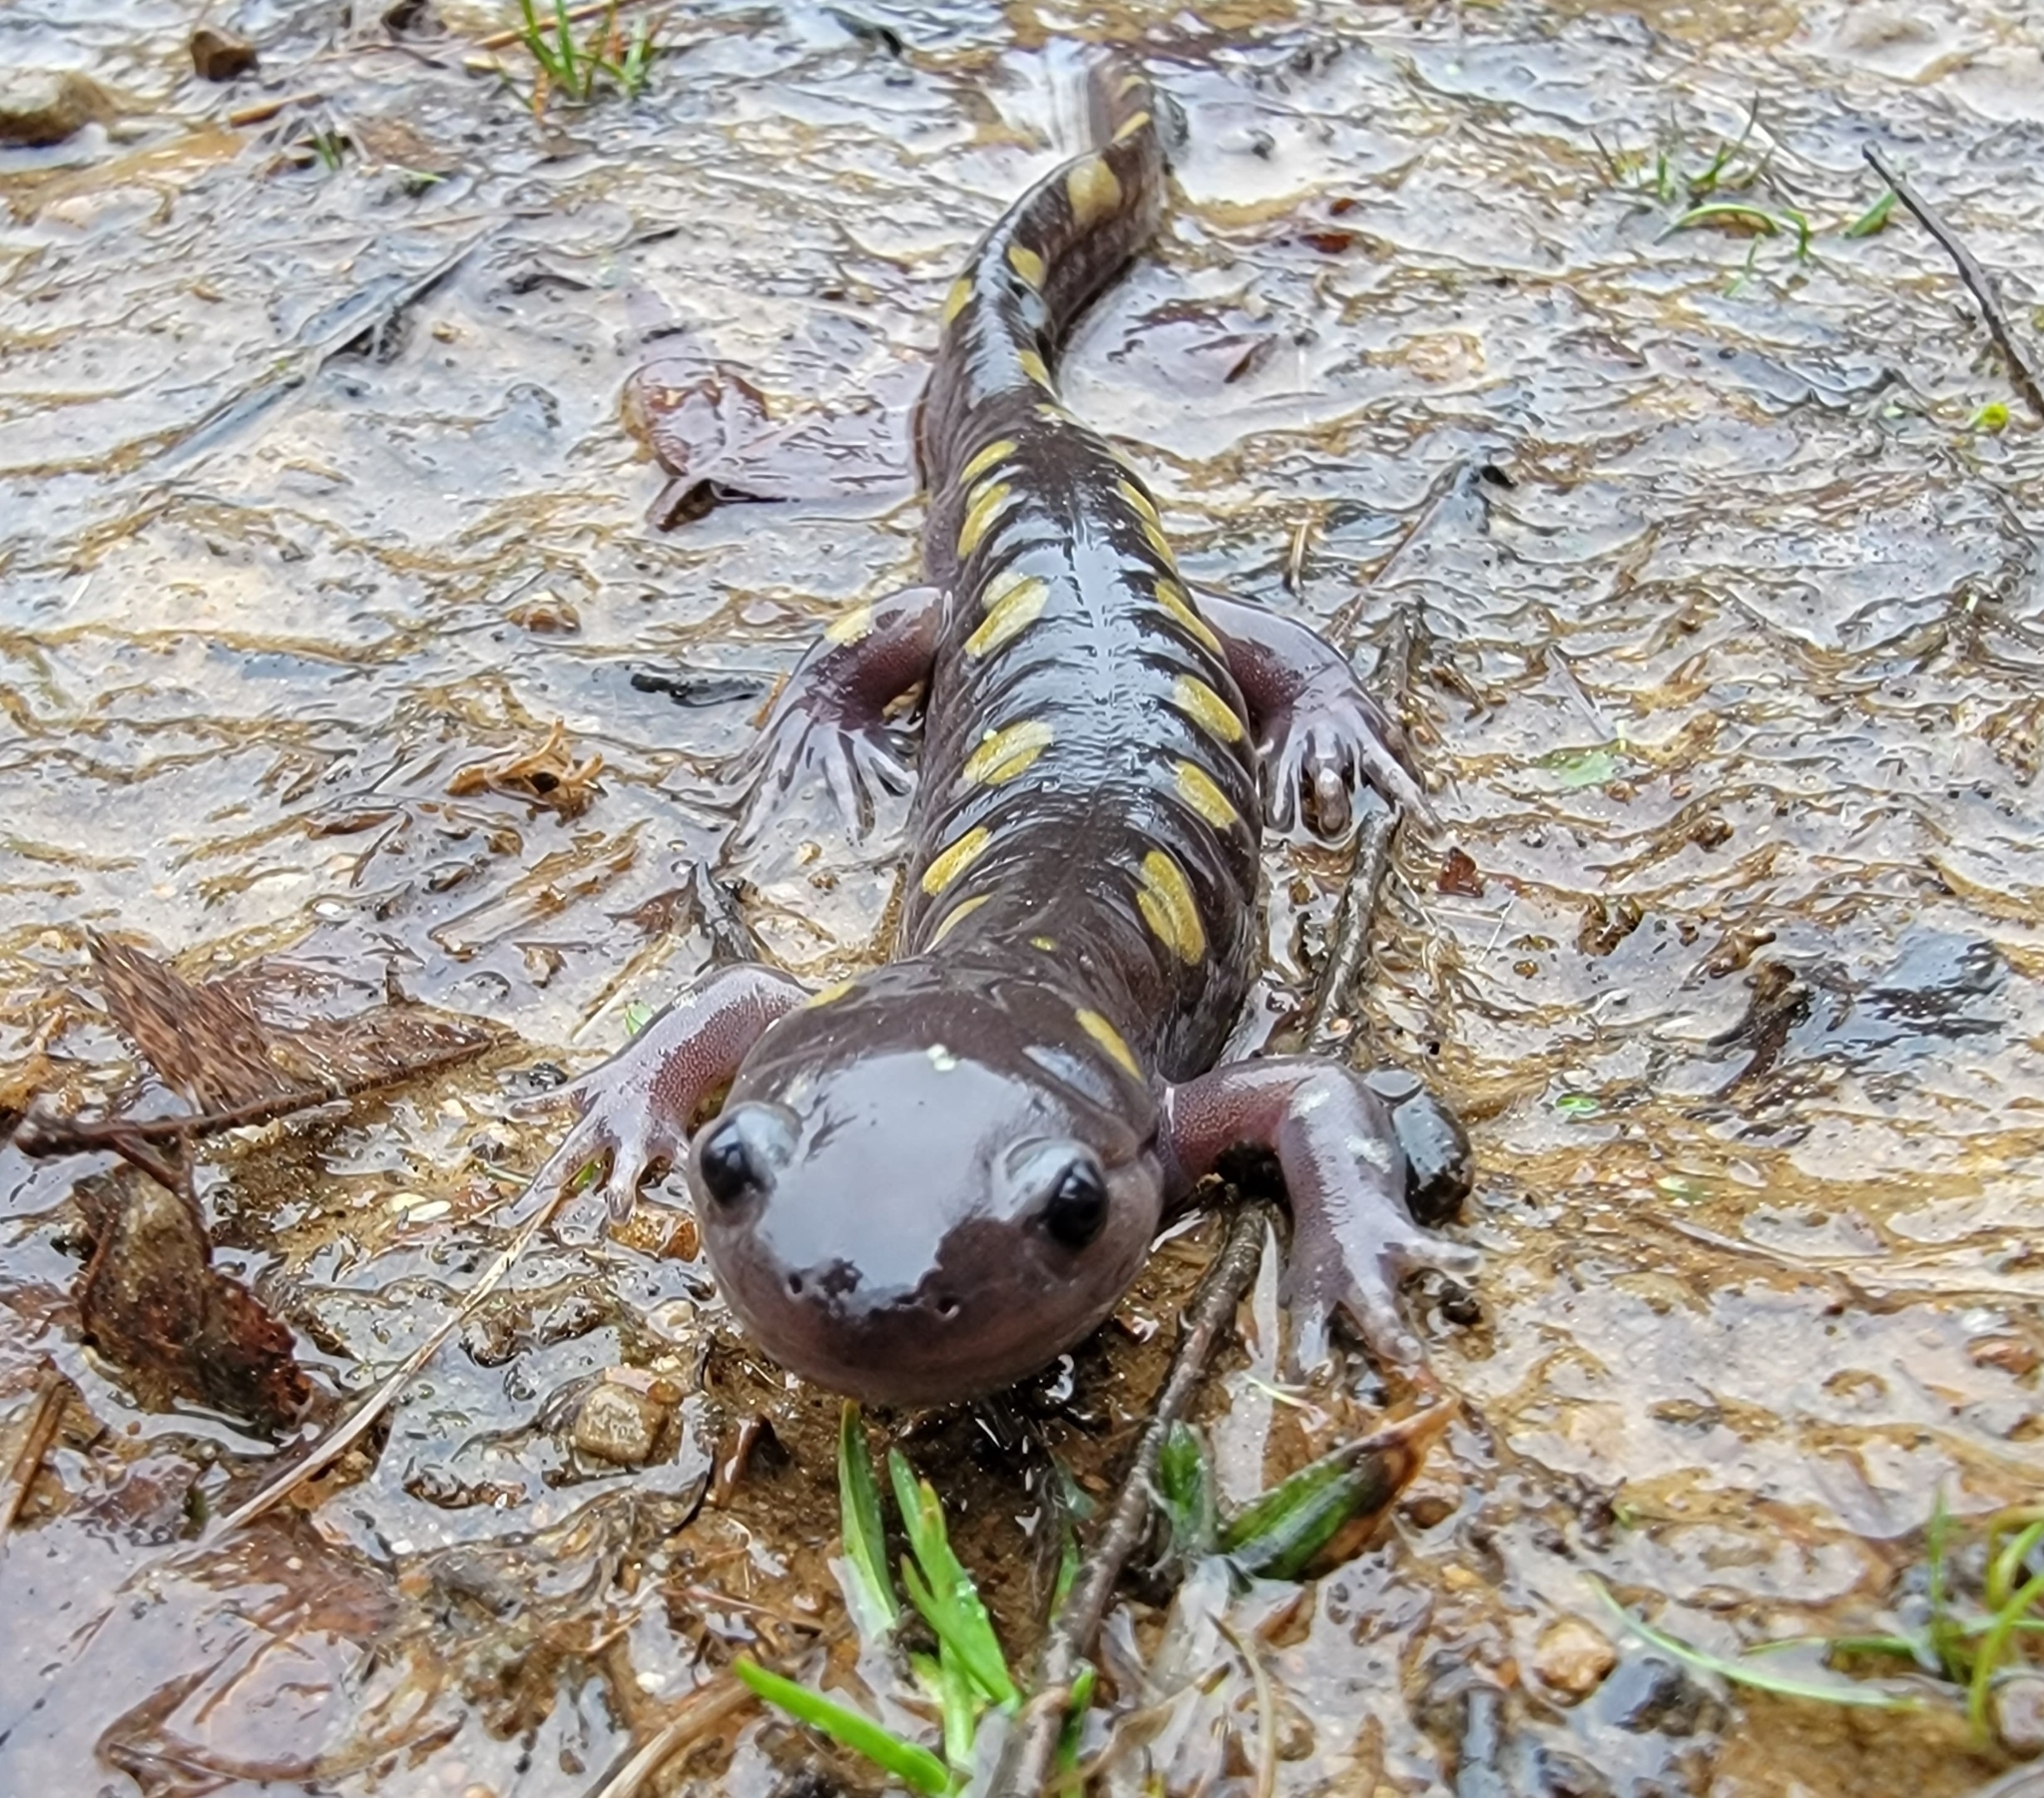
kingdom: Animalia
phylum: Chordata
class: Amphibia
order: Caudata
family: Ambystomatidae
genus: Ambystoma
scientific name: Ambystoma maculatum
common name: Spotted salamander
